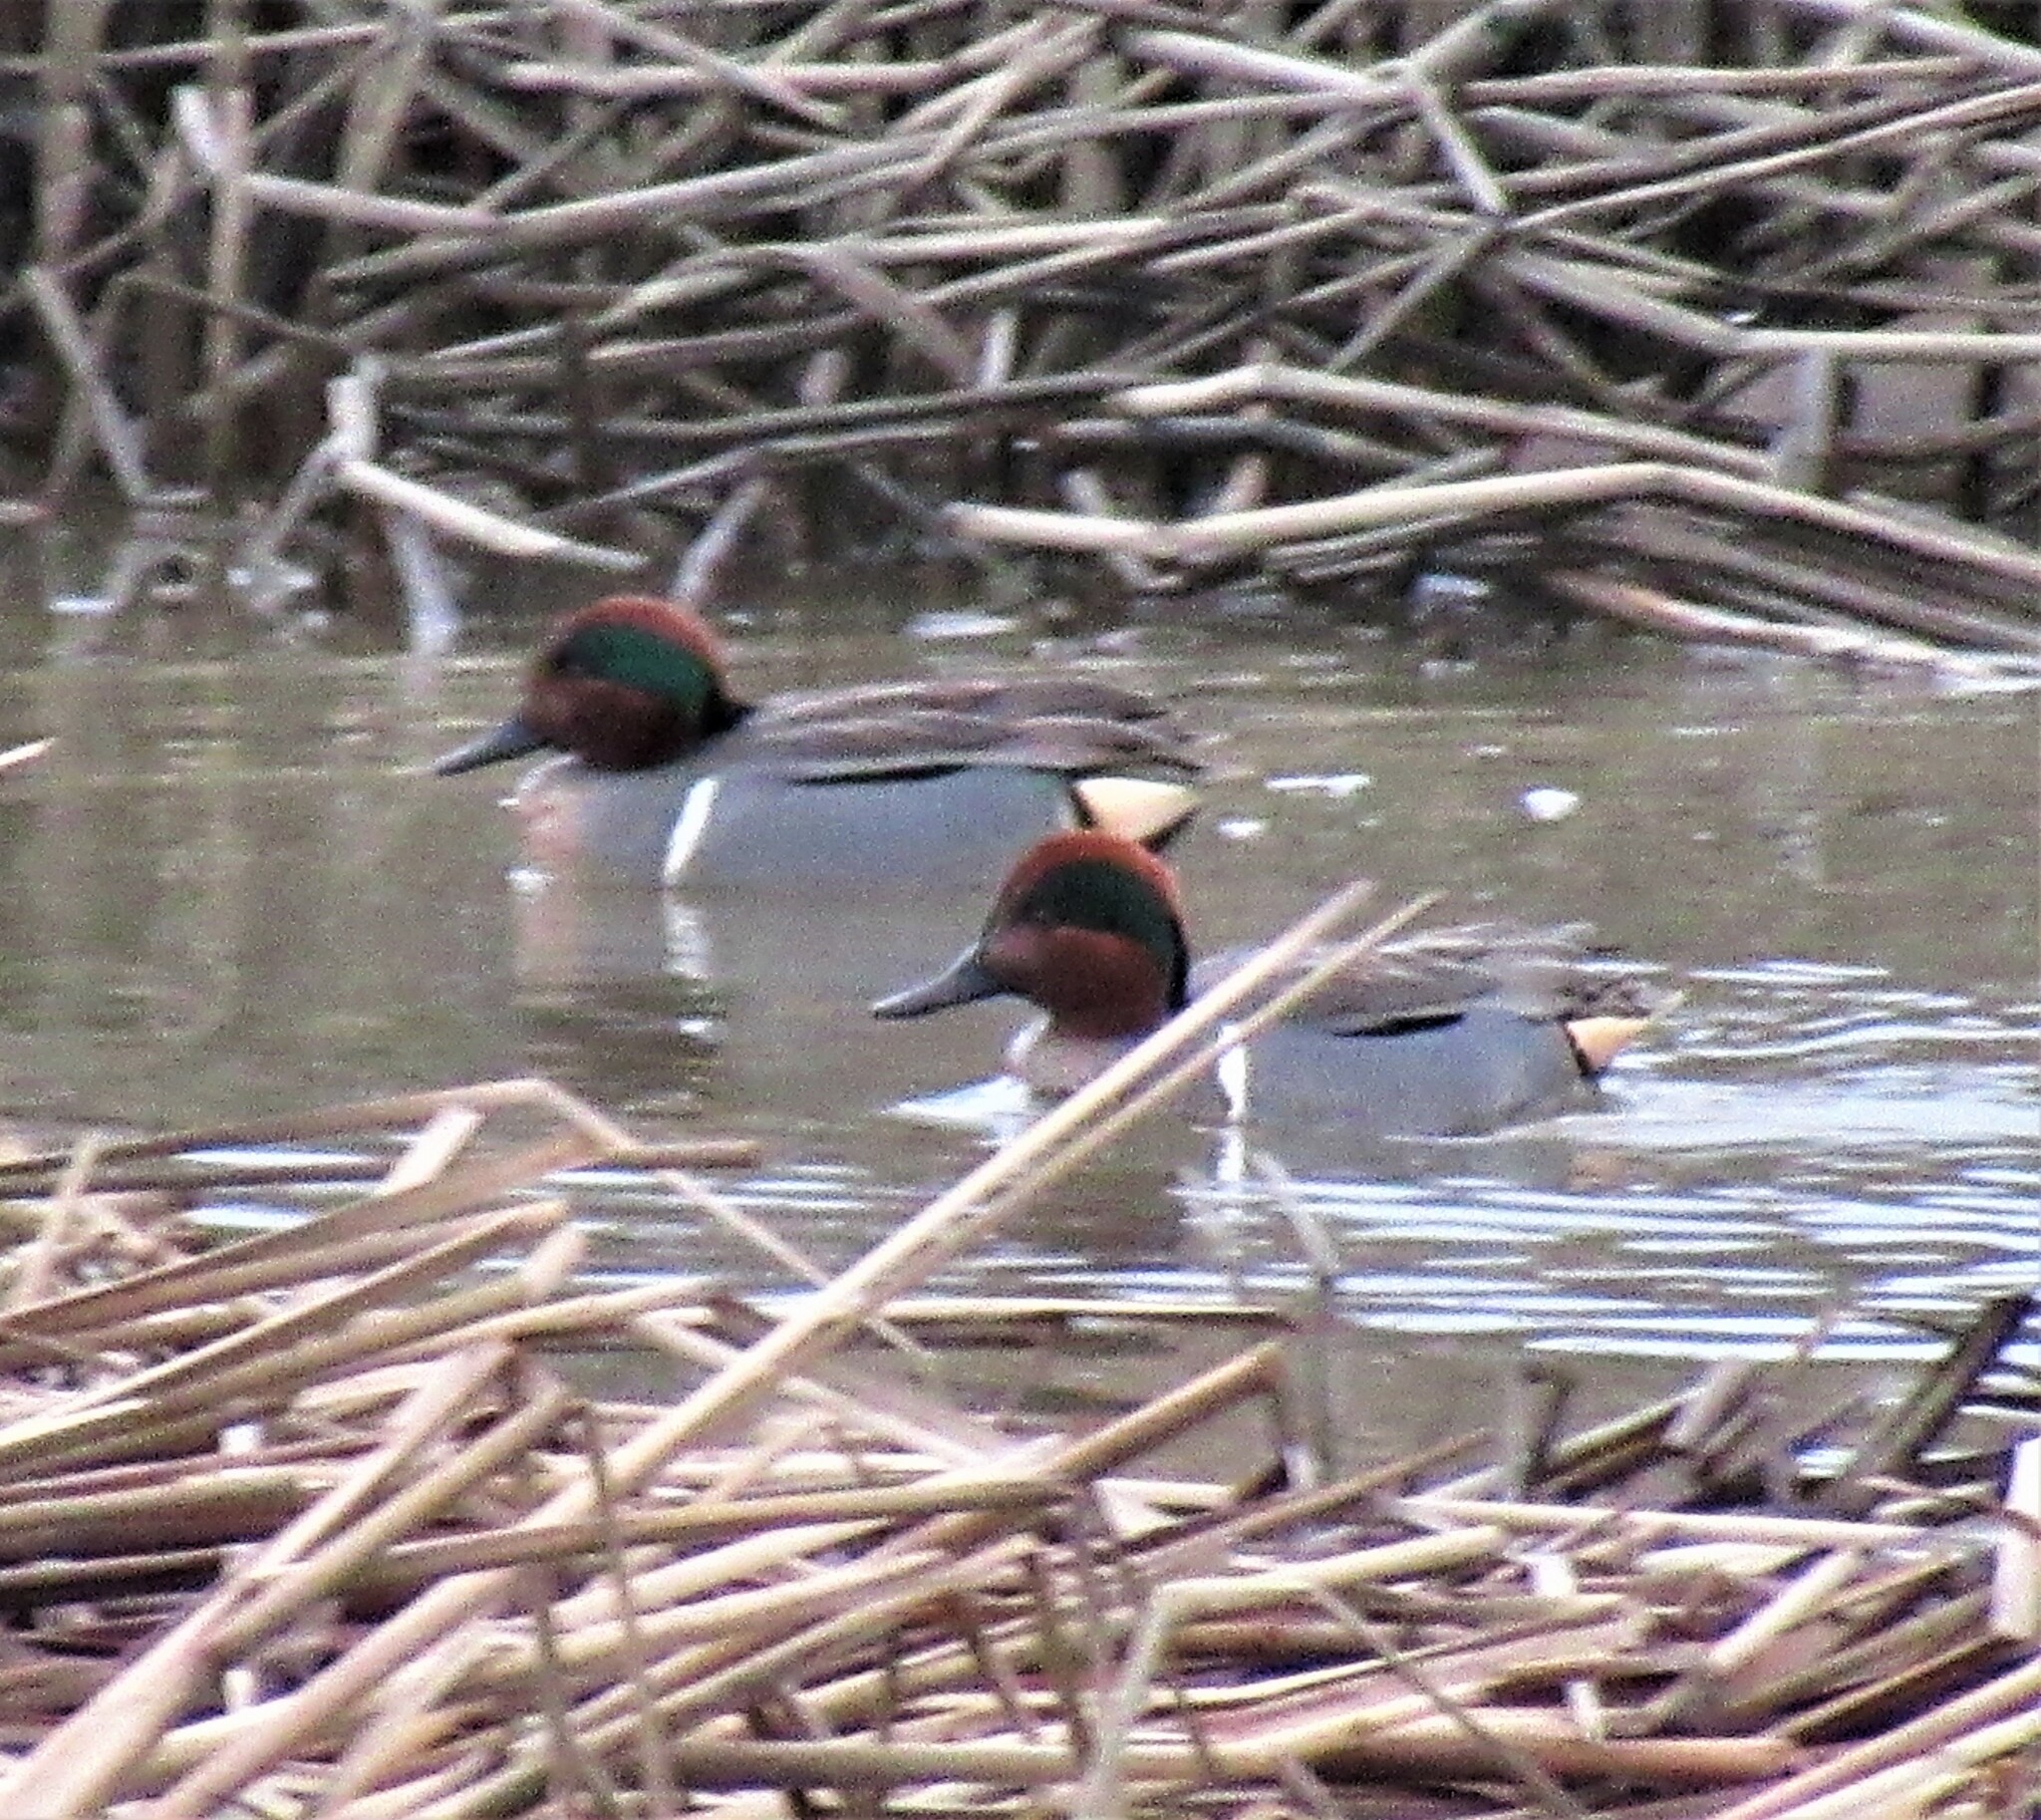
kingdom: Animalia
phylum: Chordata
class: Aves
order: Anseriformes
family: Anatidae
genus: Anas
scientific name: Anas crecca
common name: Eurasian teal
